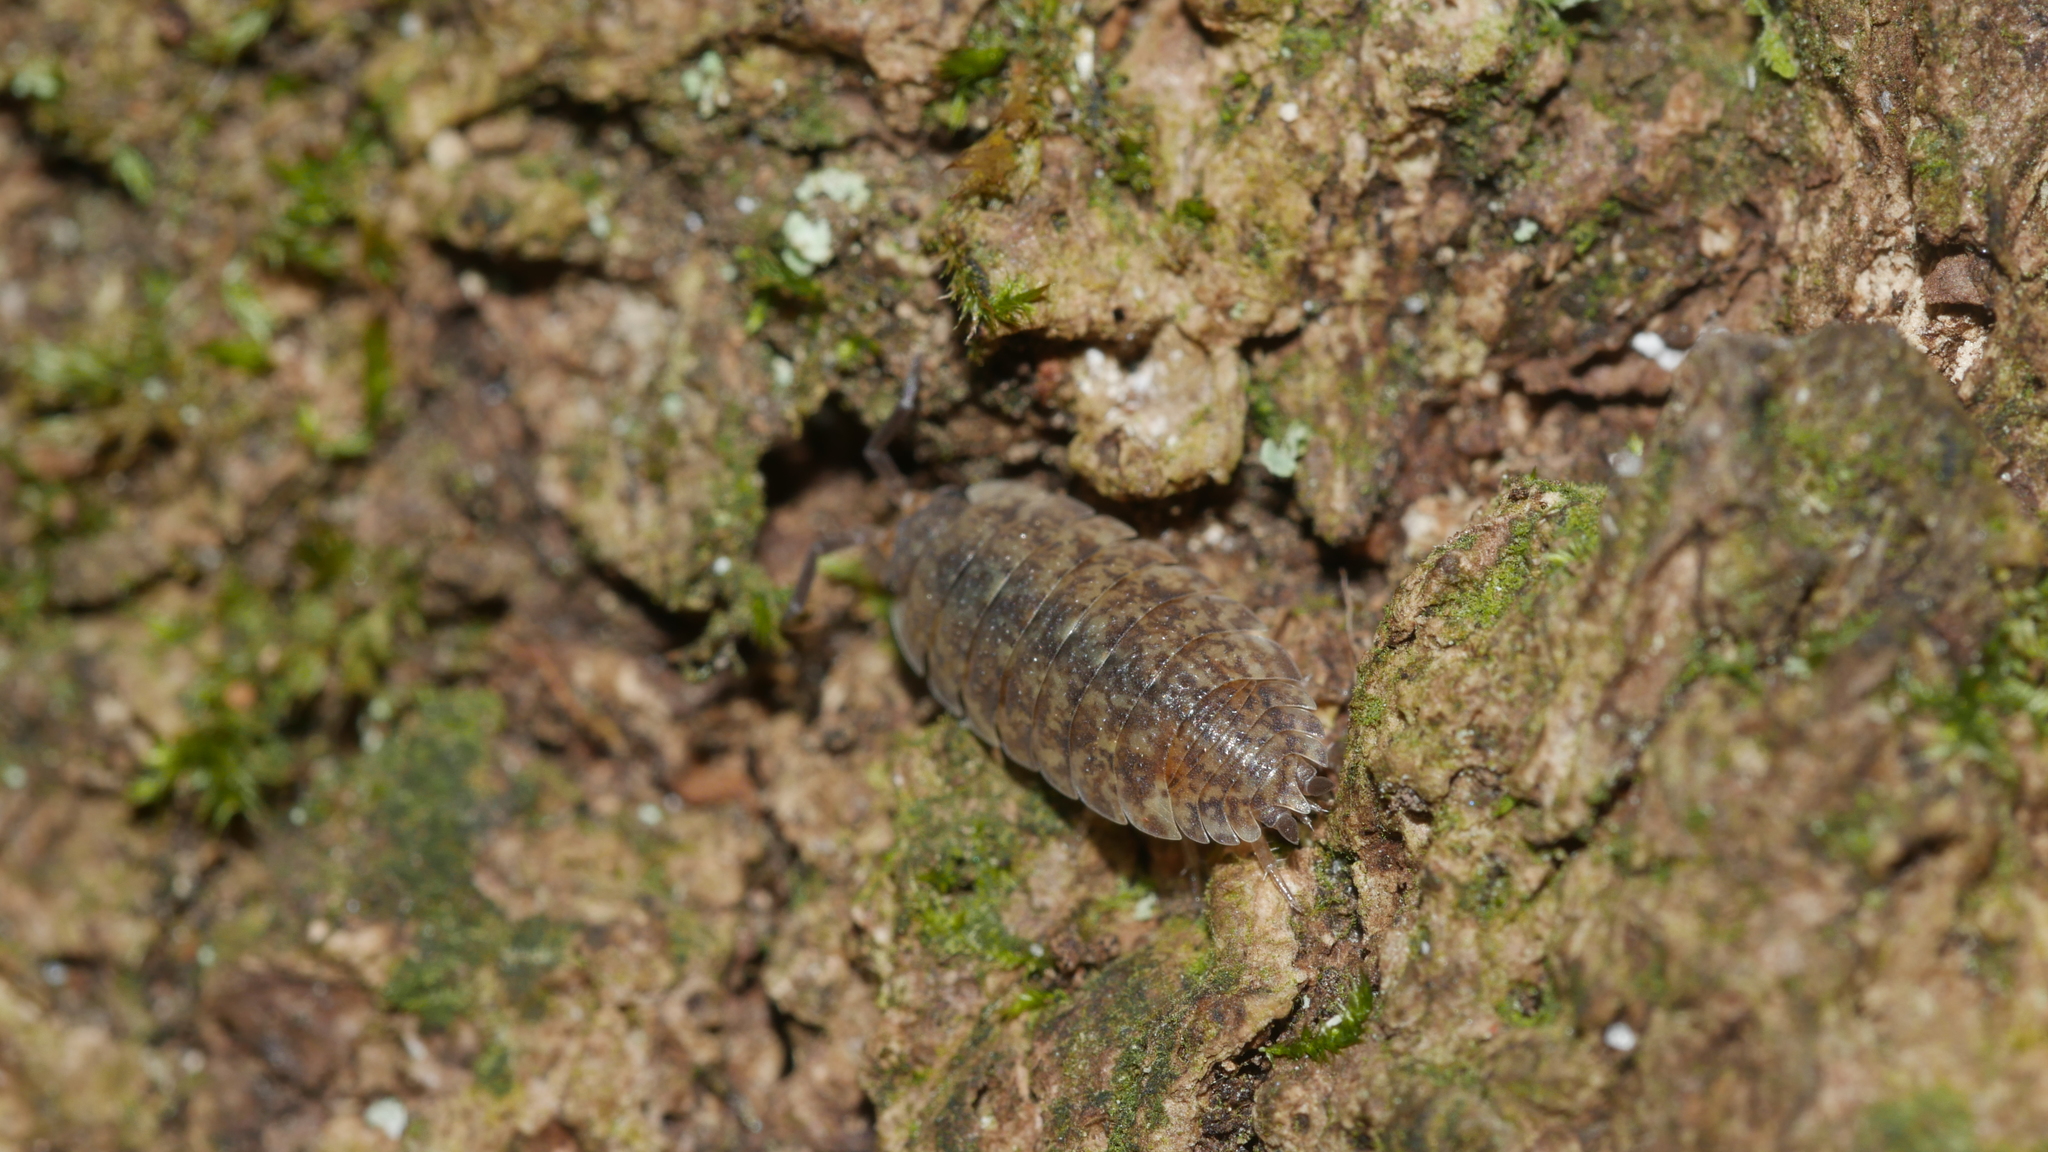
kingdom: Animalia
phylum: Arthropoda
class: Malacostraca
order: Isopoda
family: Porcellionidae
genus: Porcellio
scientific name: Porcellio scaber
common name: Common rough woodlouse
